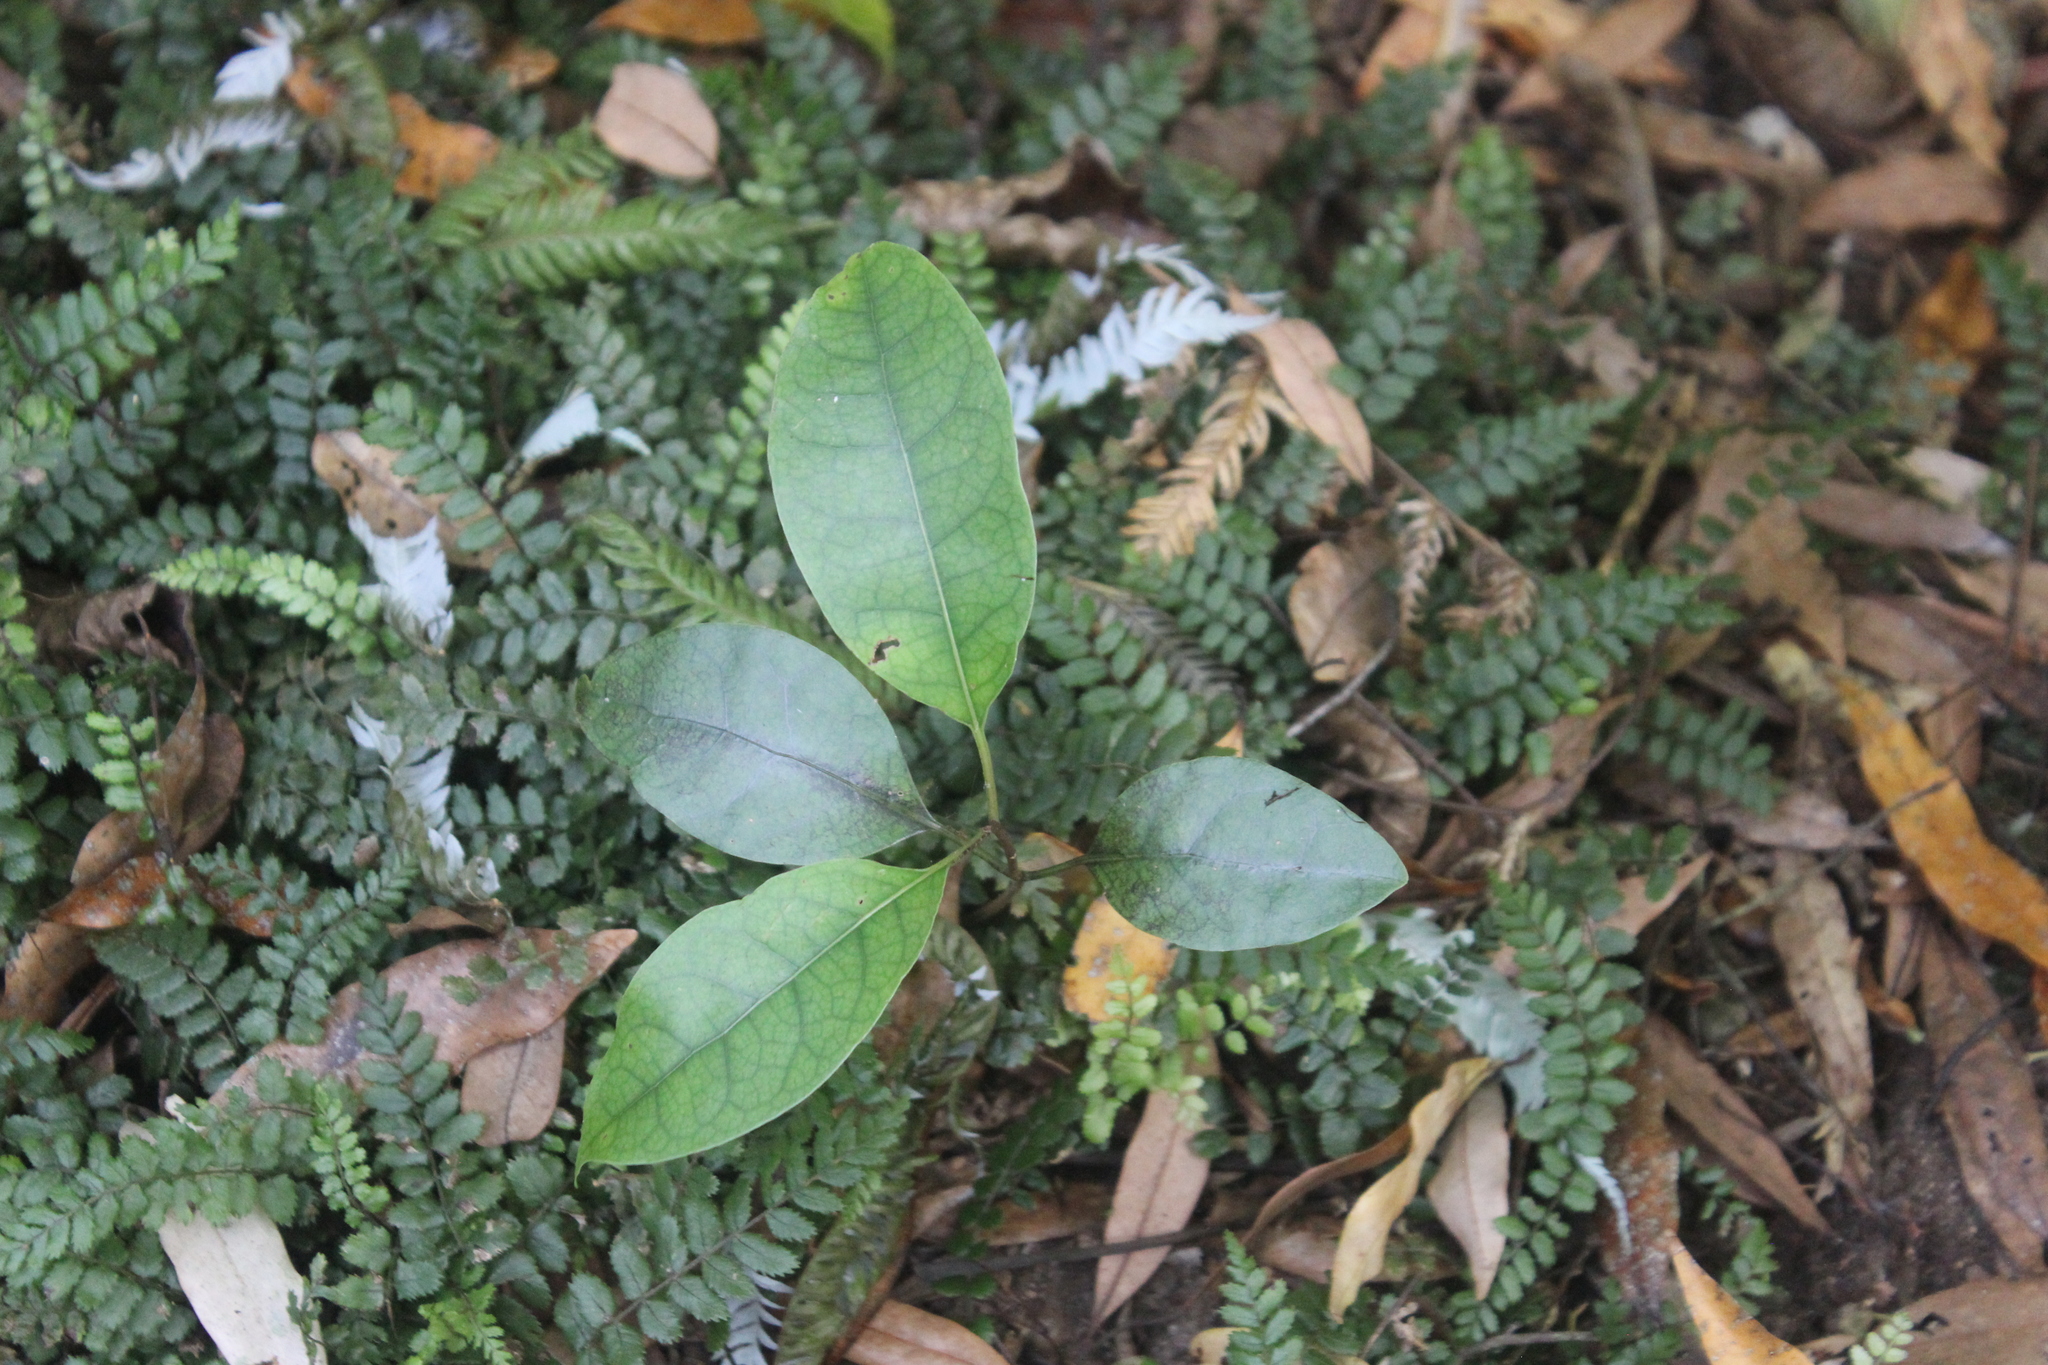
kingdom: Plantae
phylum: Tracheophyta
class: Magnoliopsida
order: Laurales
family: Lauraceae
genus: Litsea
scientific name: Litsea calicaris
